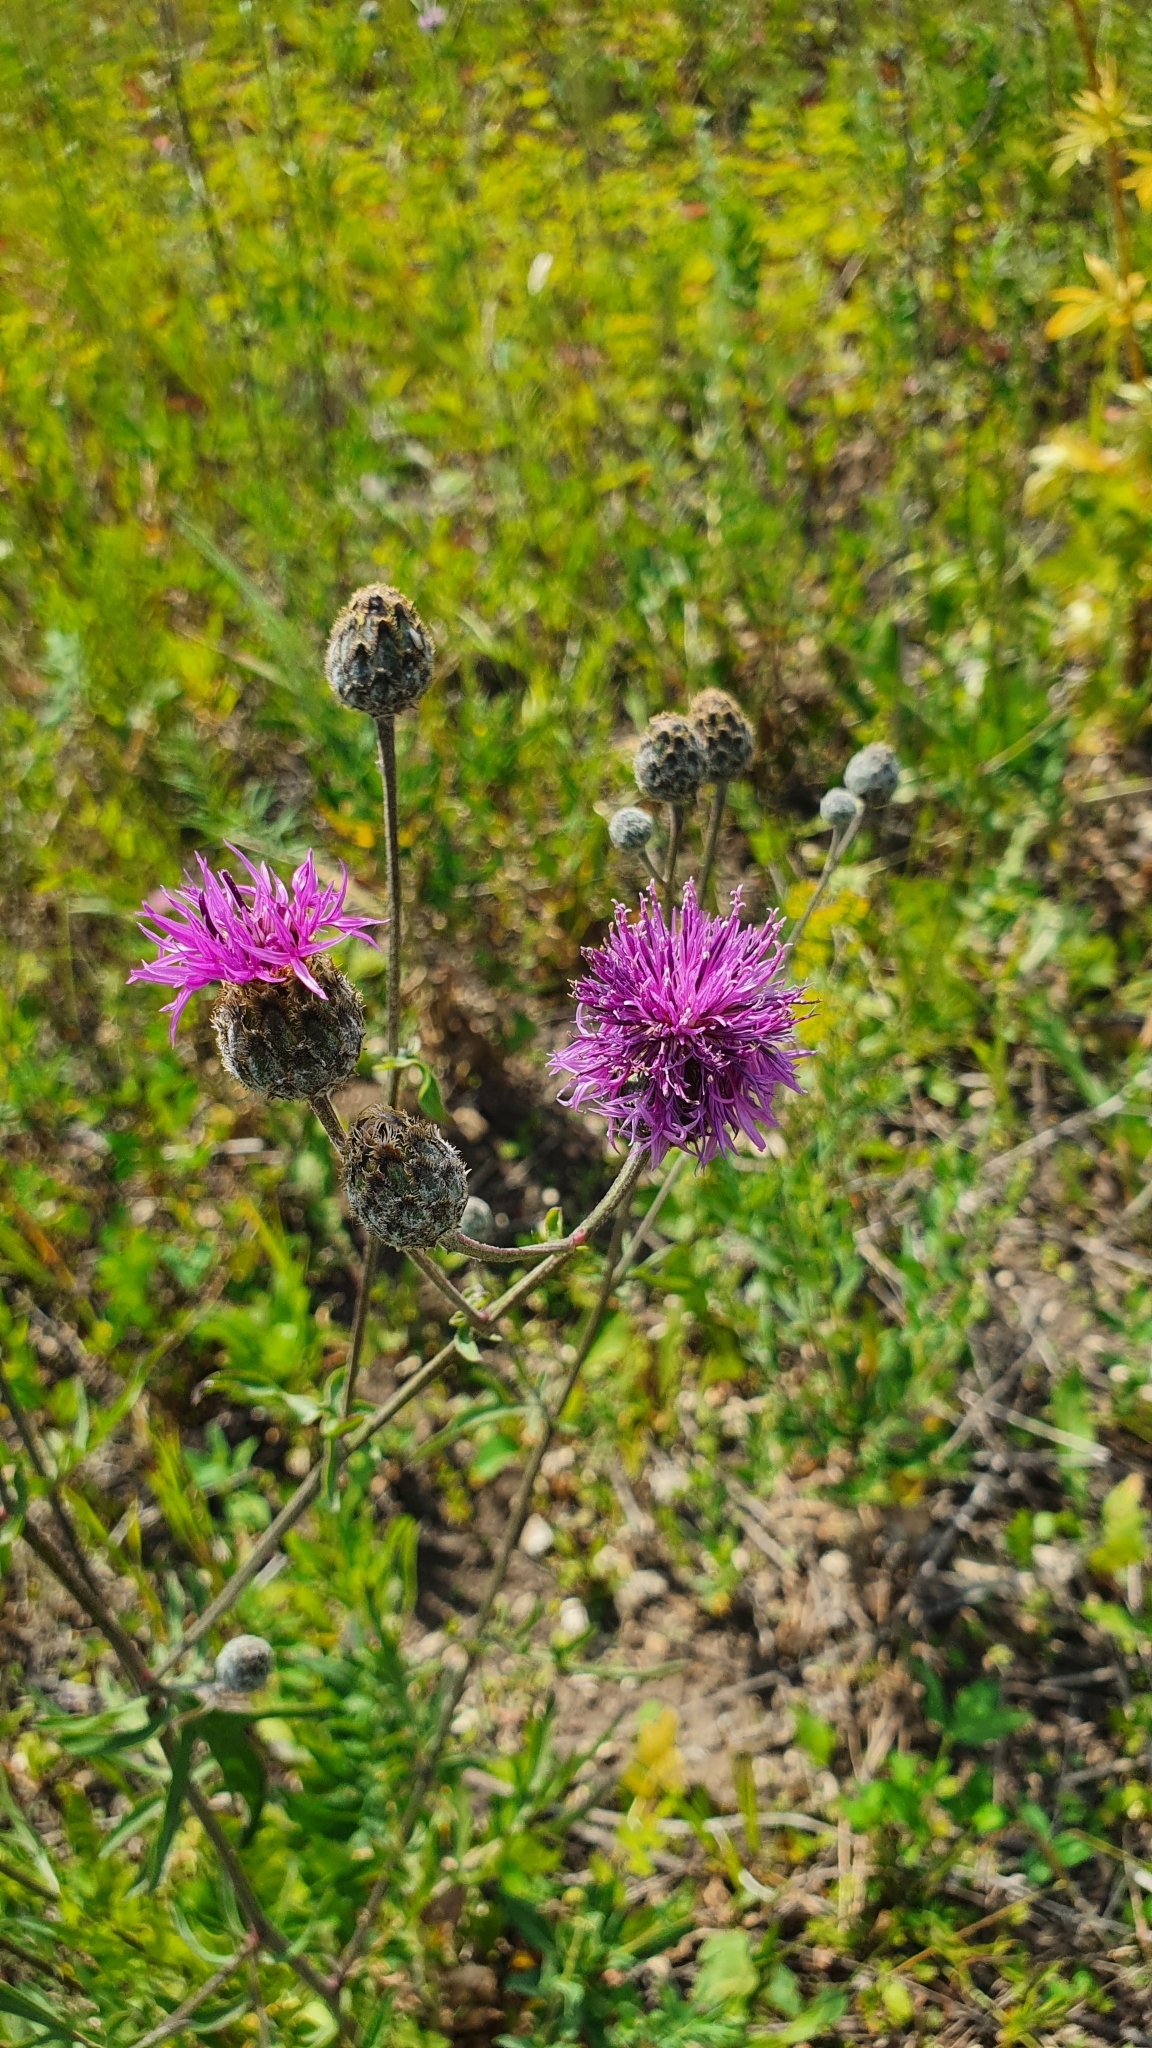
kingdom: Plantae
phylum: Tracheophyta
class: Magnoliopsida
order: Asterales
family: Asteraceae
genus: Centaurea
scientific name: Centaurea scabiosa
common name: Greater knapweed
